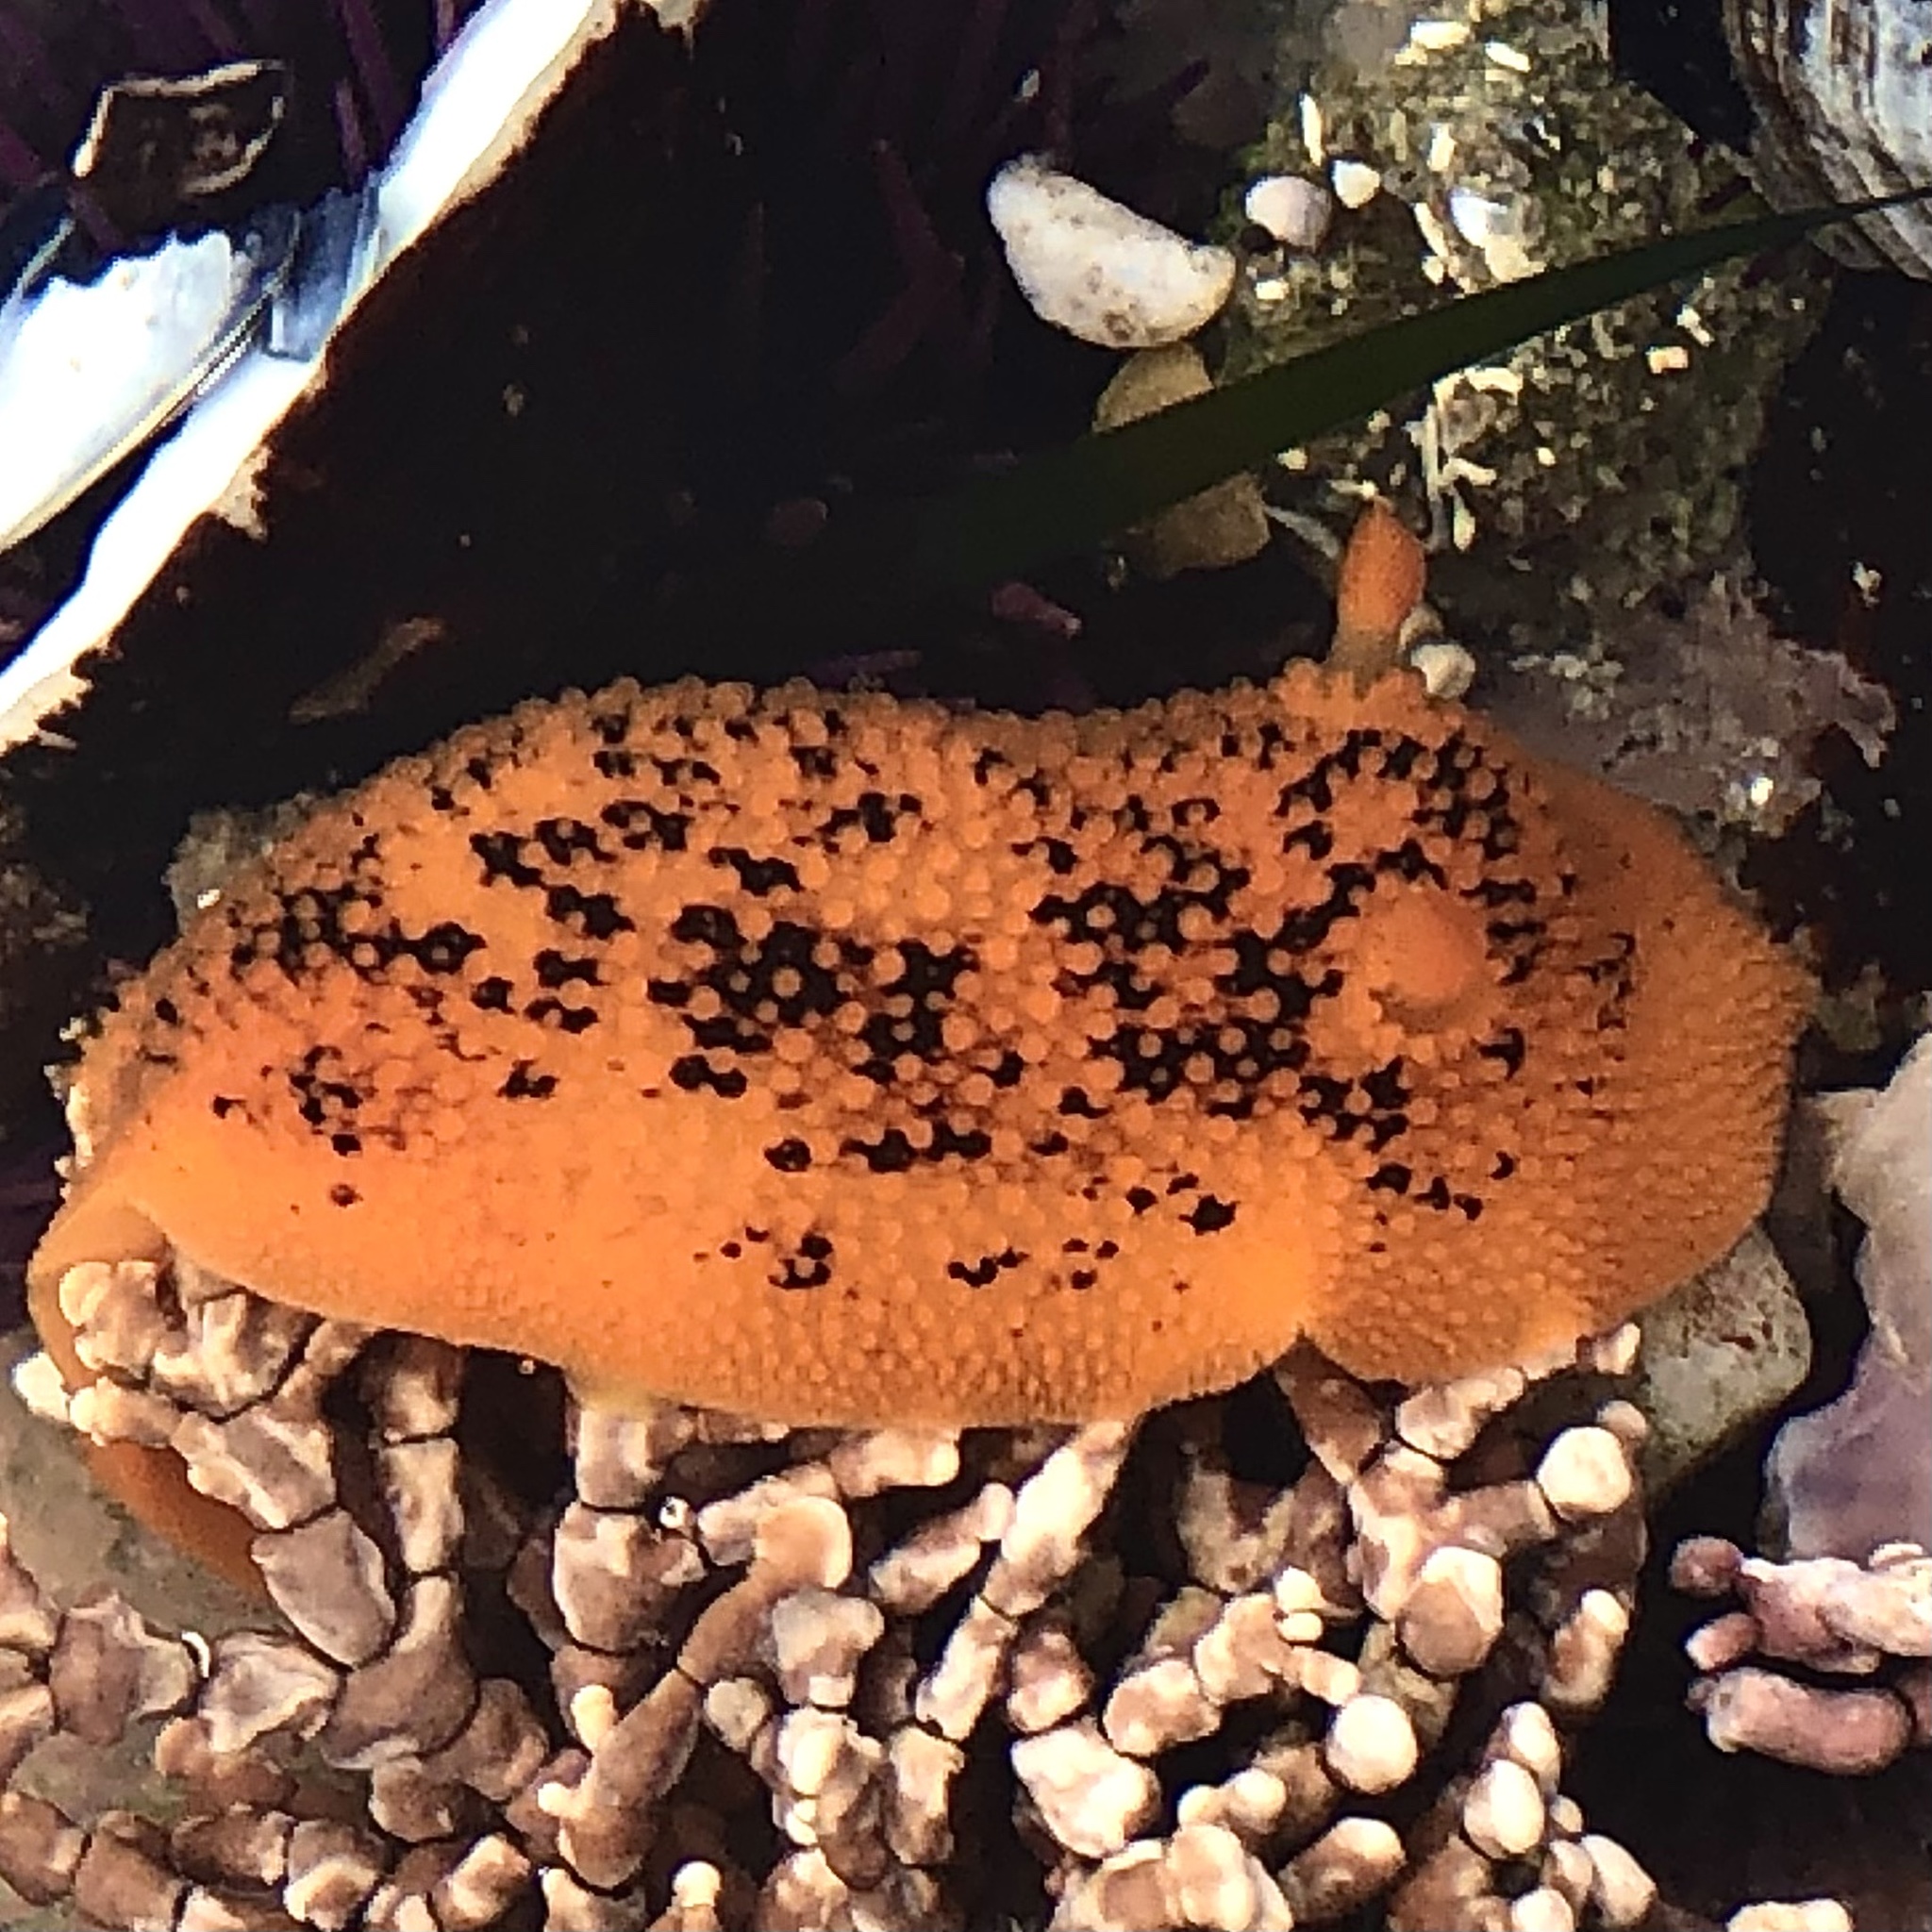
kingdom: Animalia
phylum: Mollusca
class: Gastropoda
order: Nudibranchia
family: Discodorididae
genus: Peltodoris
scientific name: Peltodoris nobilis
